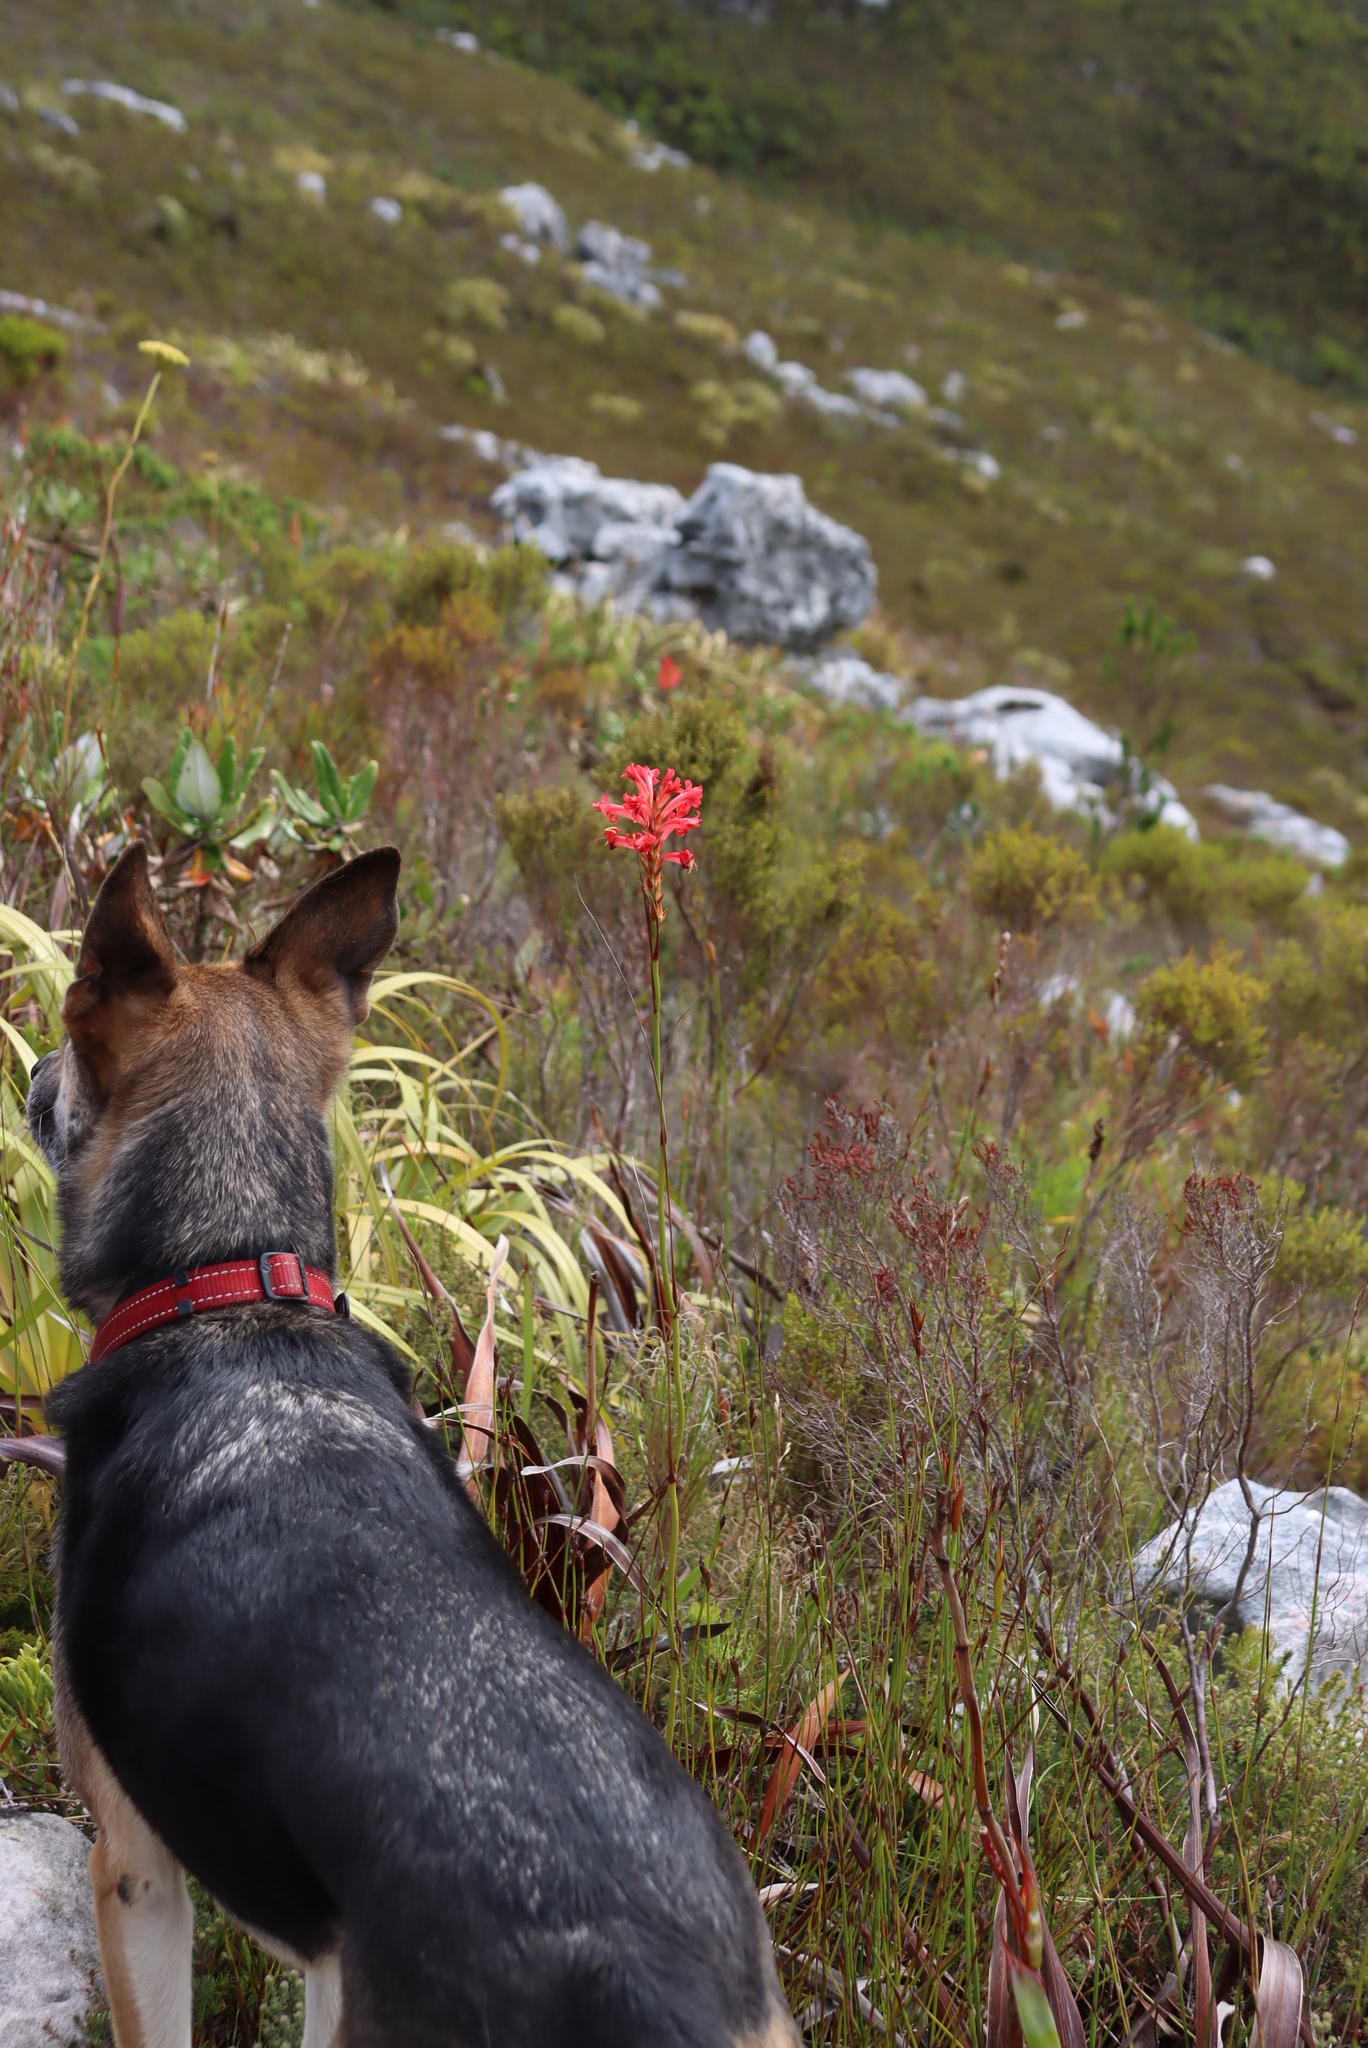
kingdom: Plantae
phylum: Tracheophyta
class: Liliopsida
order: Asparagales
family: Iridaceae
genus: Tritoniopsis
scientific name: Tritoniopsis triticea
